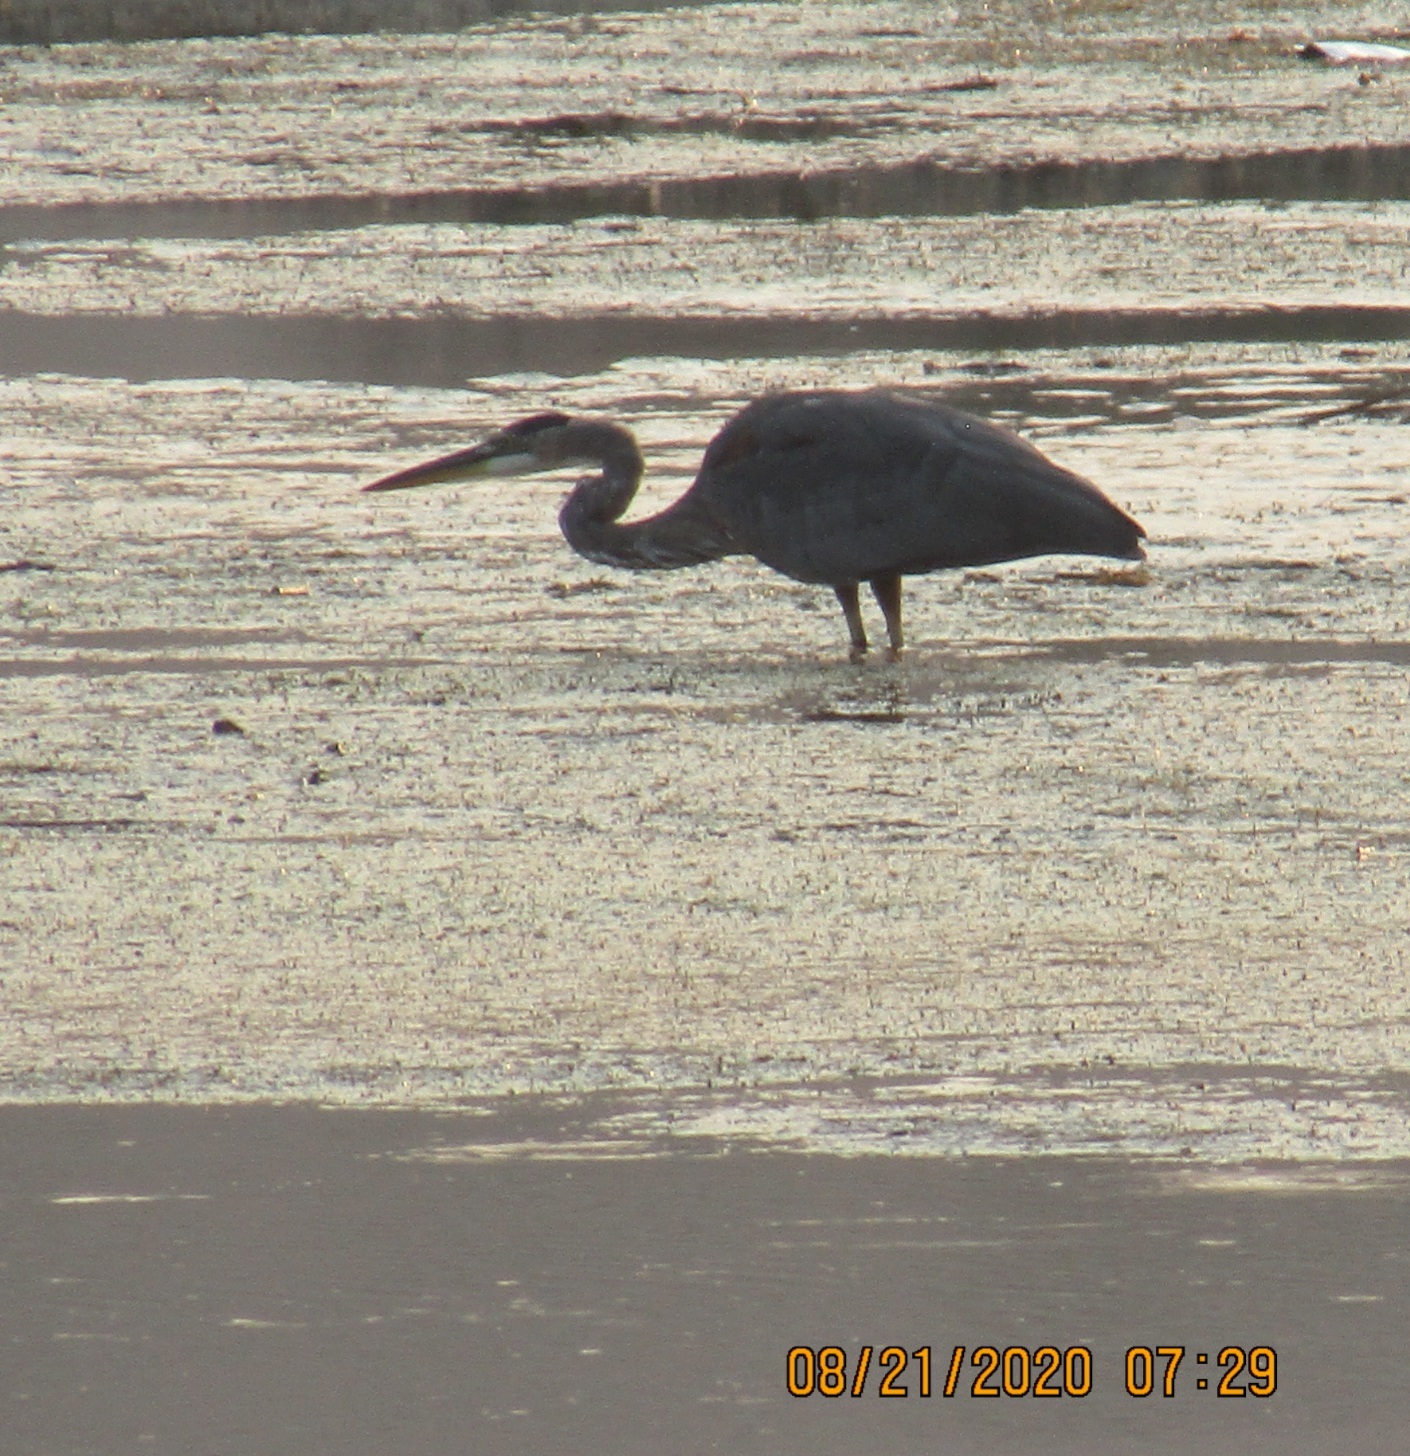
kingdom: Animalia
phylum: Chordata
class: Aves
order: Pelecaniformes
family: Ardeidae
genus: Ardea
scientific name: Ardea herodias
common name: Great blue heron
